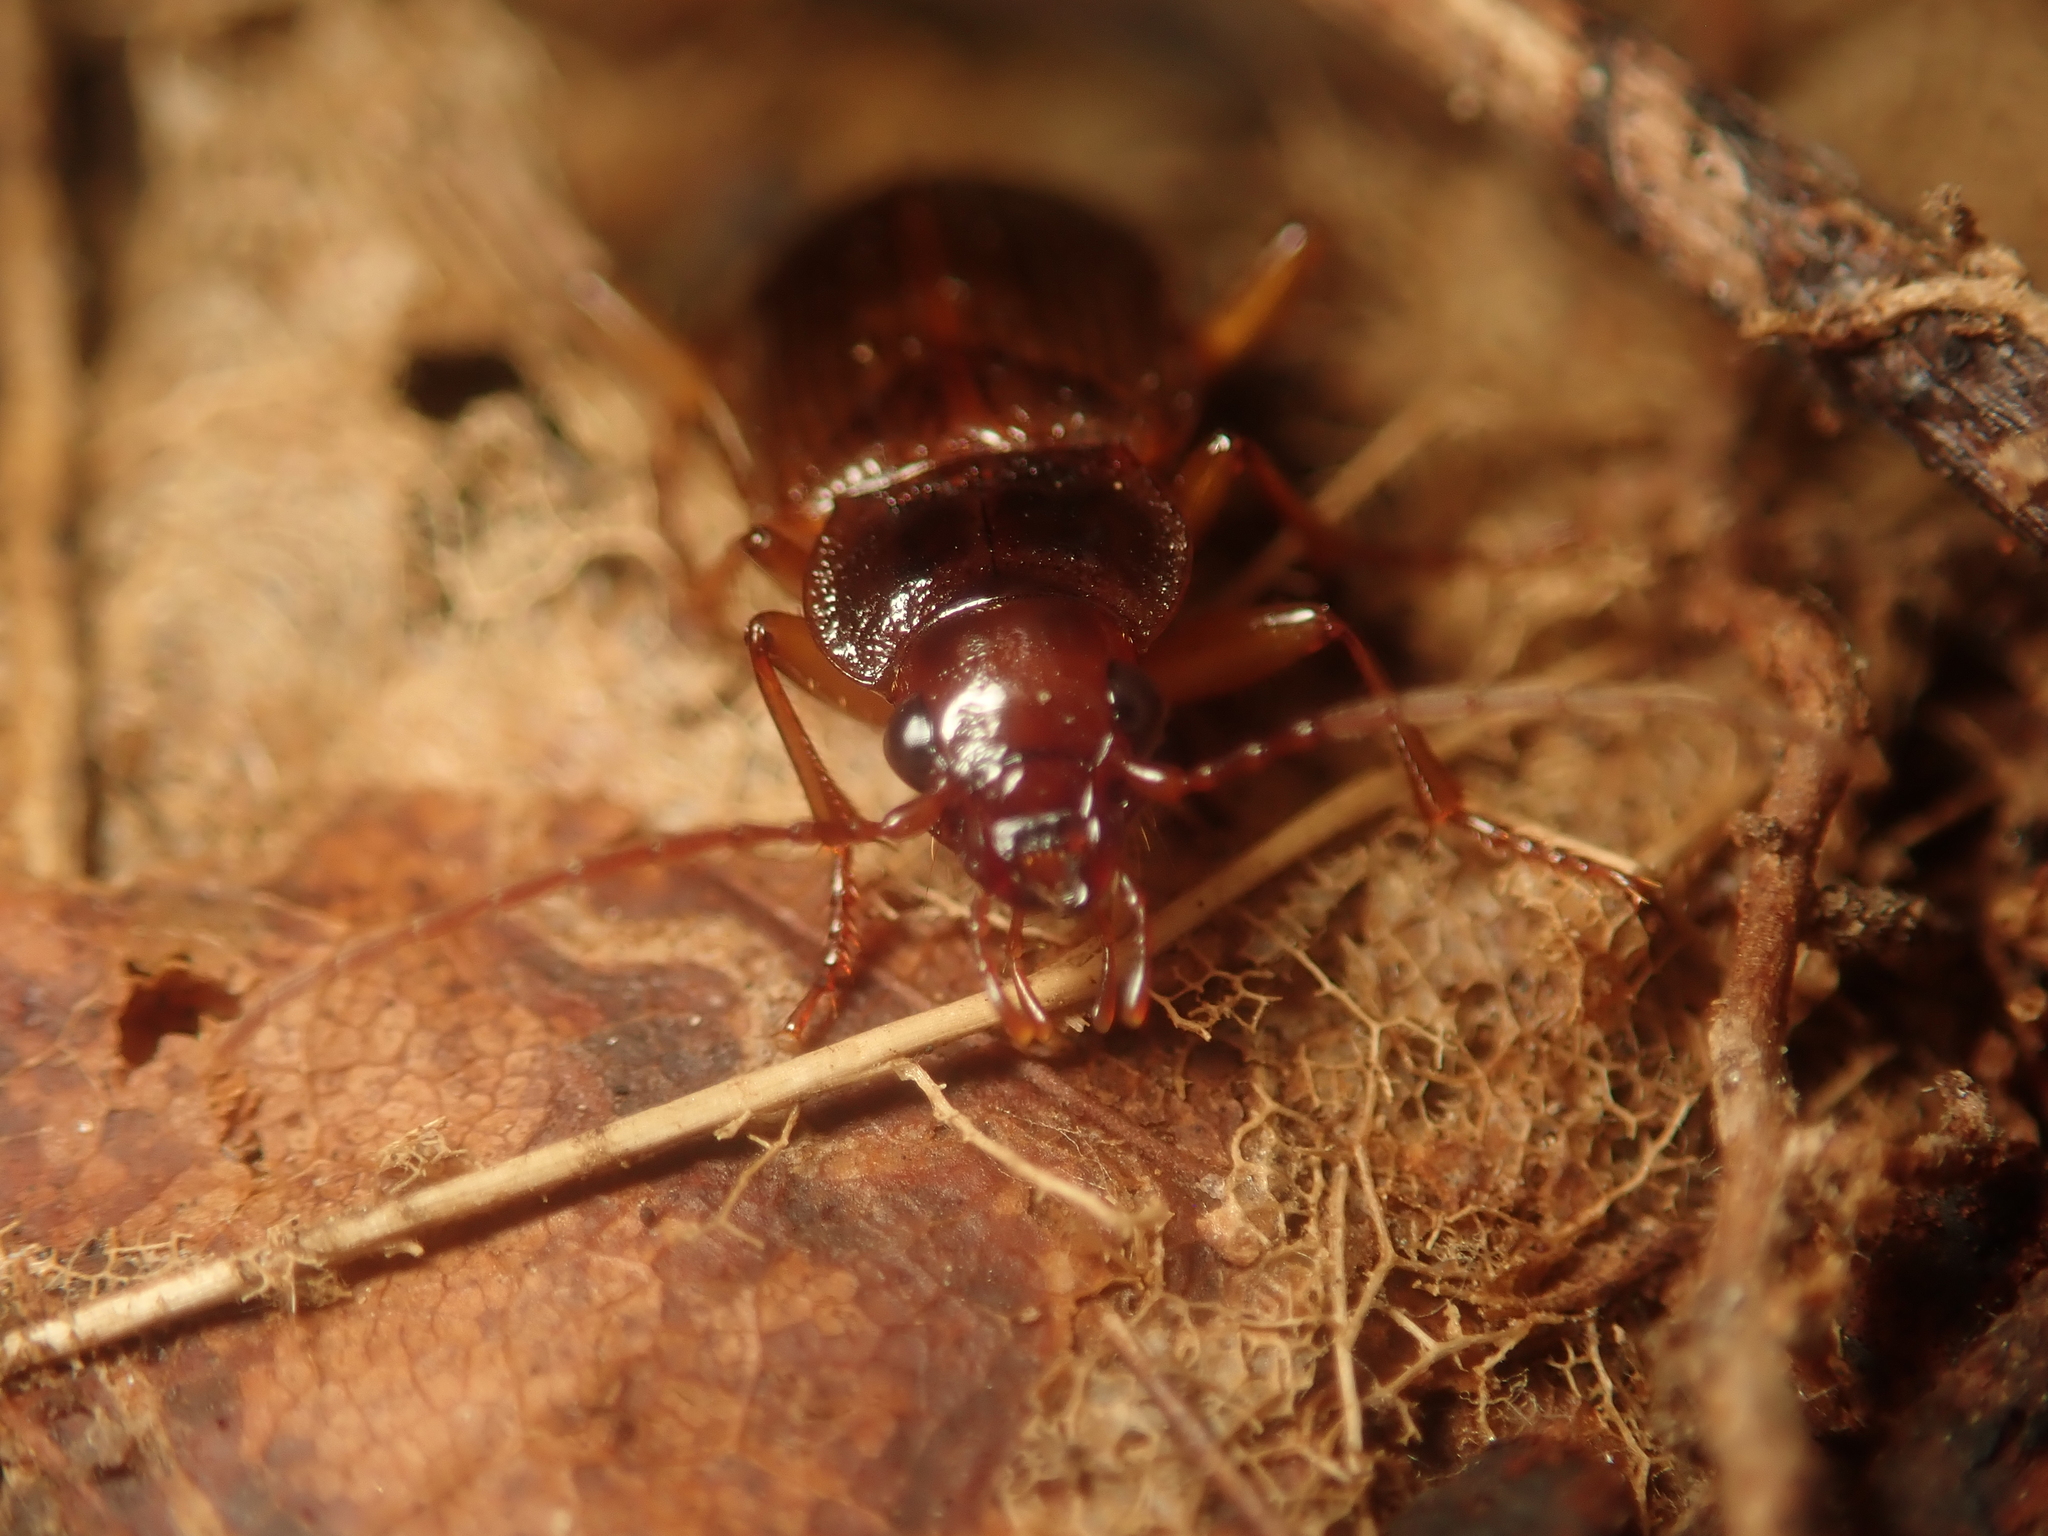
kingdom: Animalia
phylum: Arthropoda
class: Insecta
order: Coleoptera
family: Carabidae
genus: Nebria
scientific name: Nebria brevicollis
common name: Short-necked gazelle beetle
